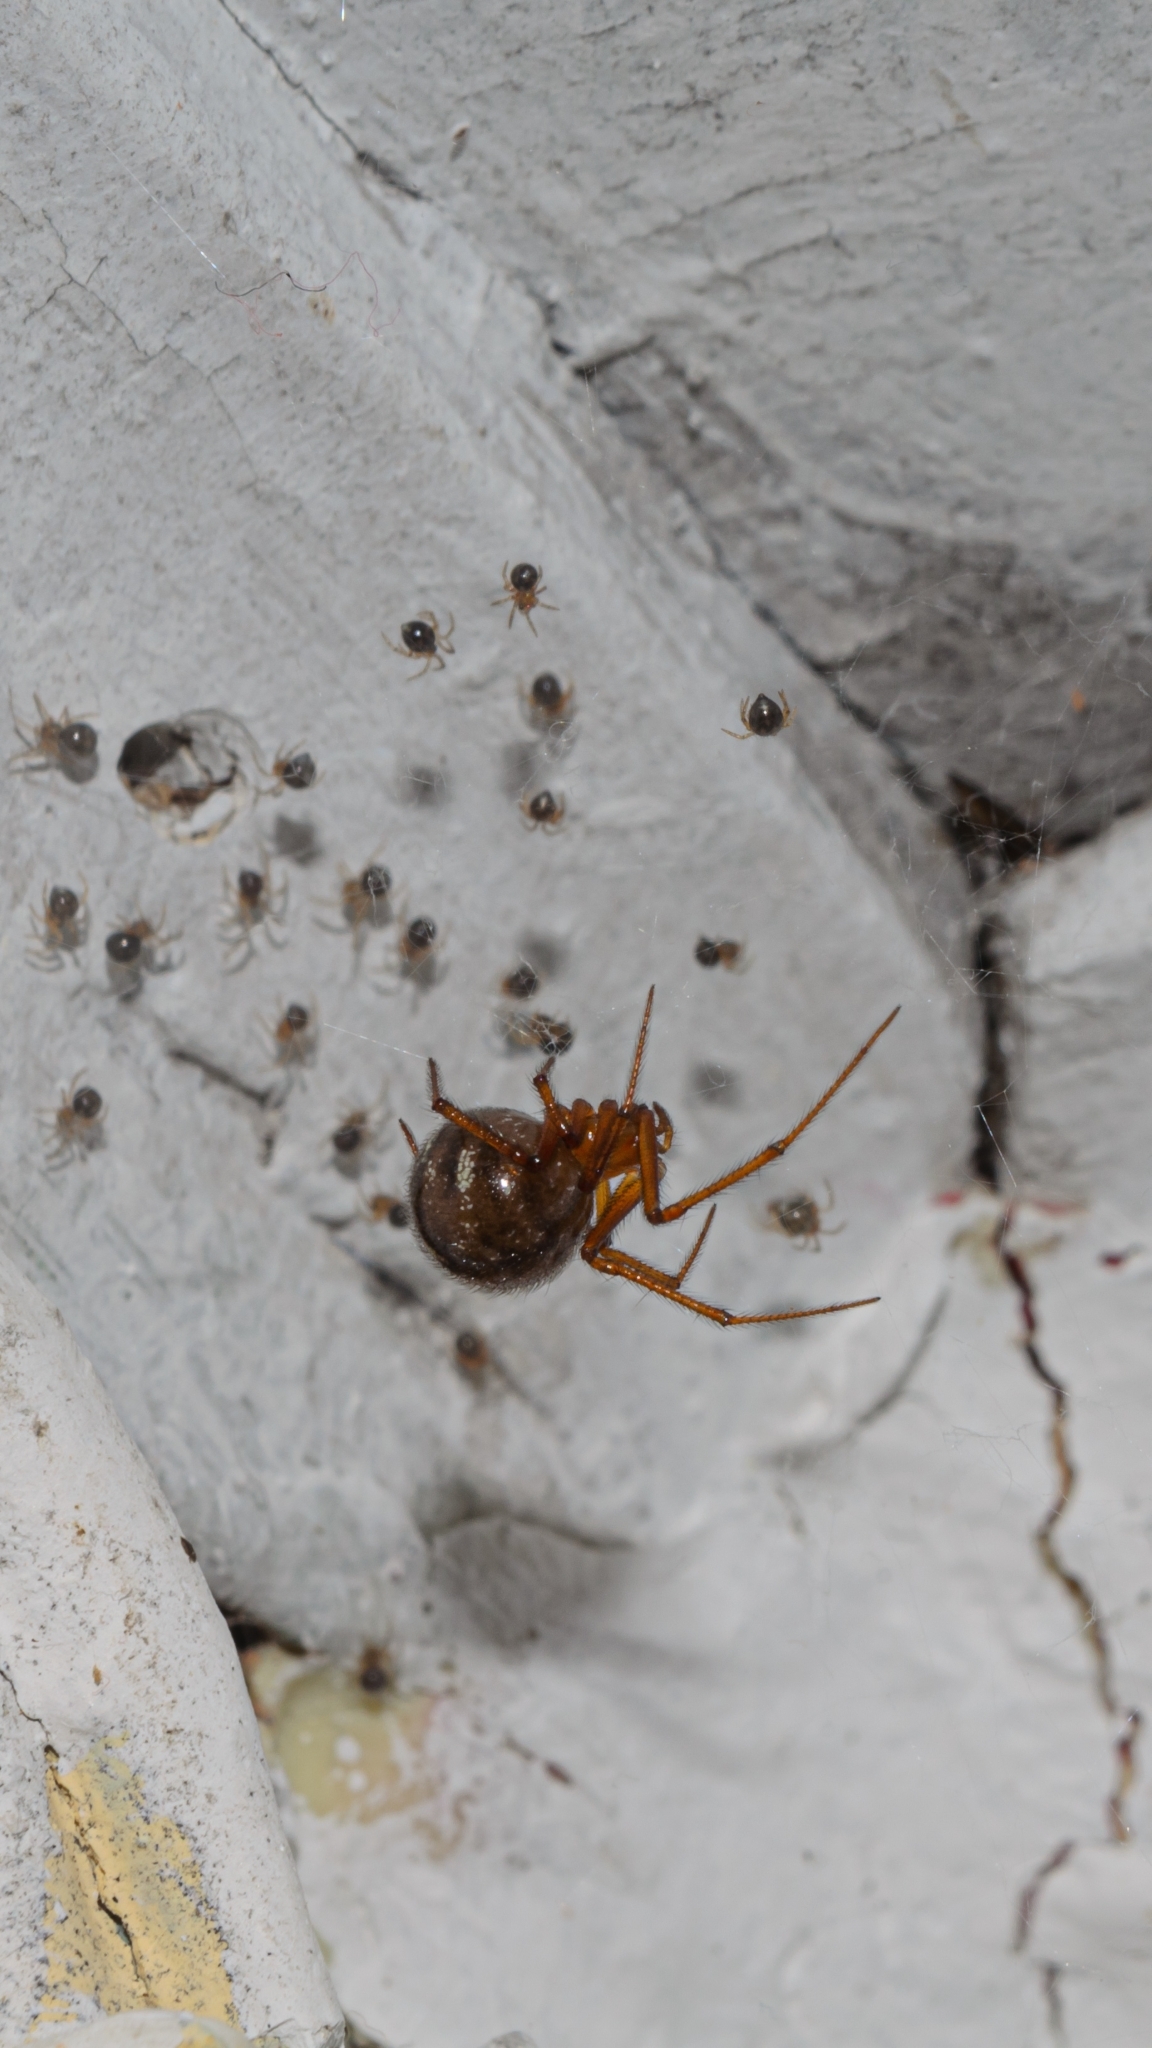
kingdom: Animalia
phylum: Arthropoda
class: Arachnida
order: Araneae
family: Theridiidae
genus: Nesticodes
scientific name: Nesticodes rufipes
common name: Cobweb spiders
